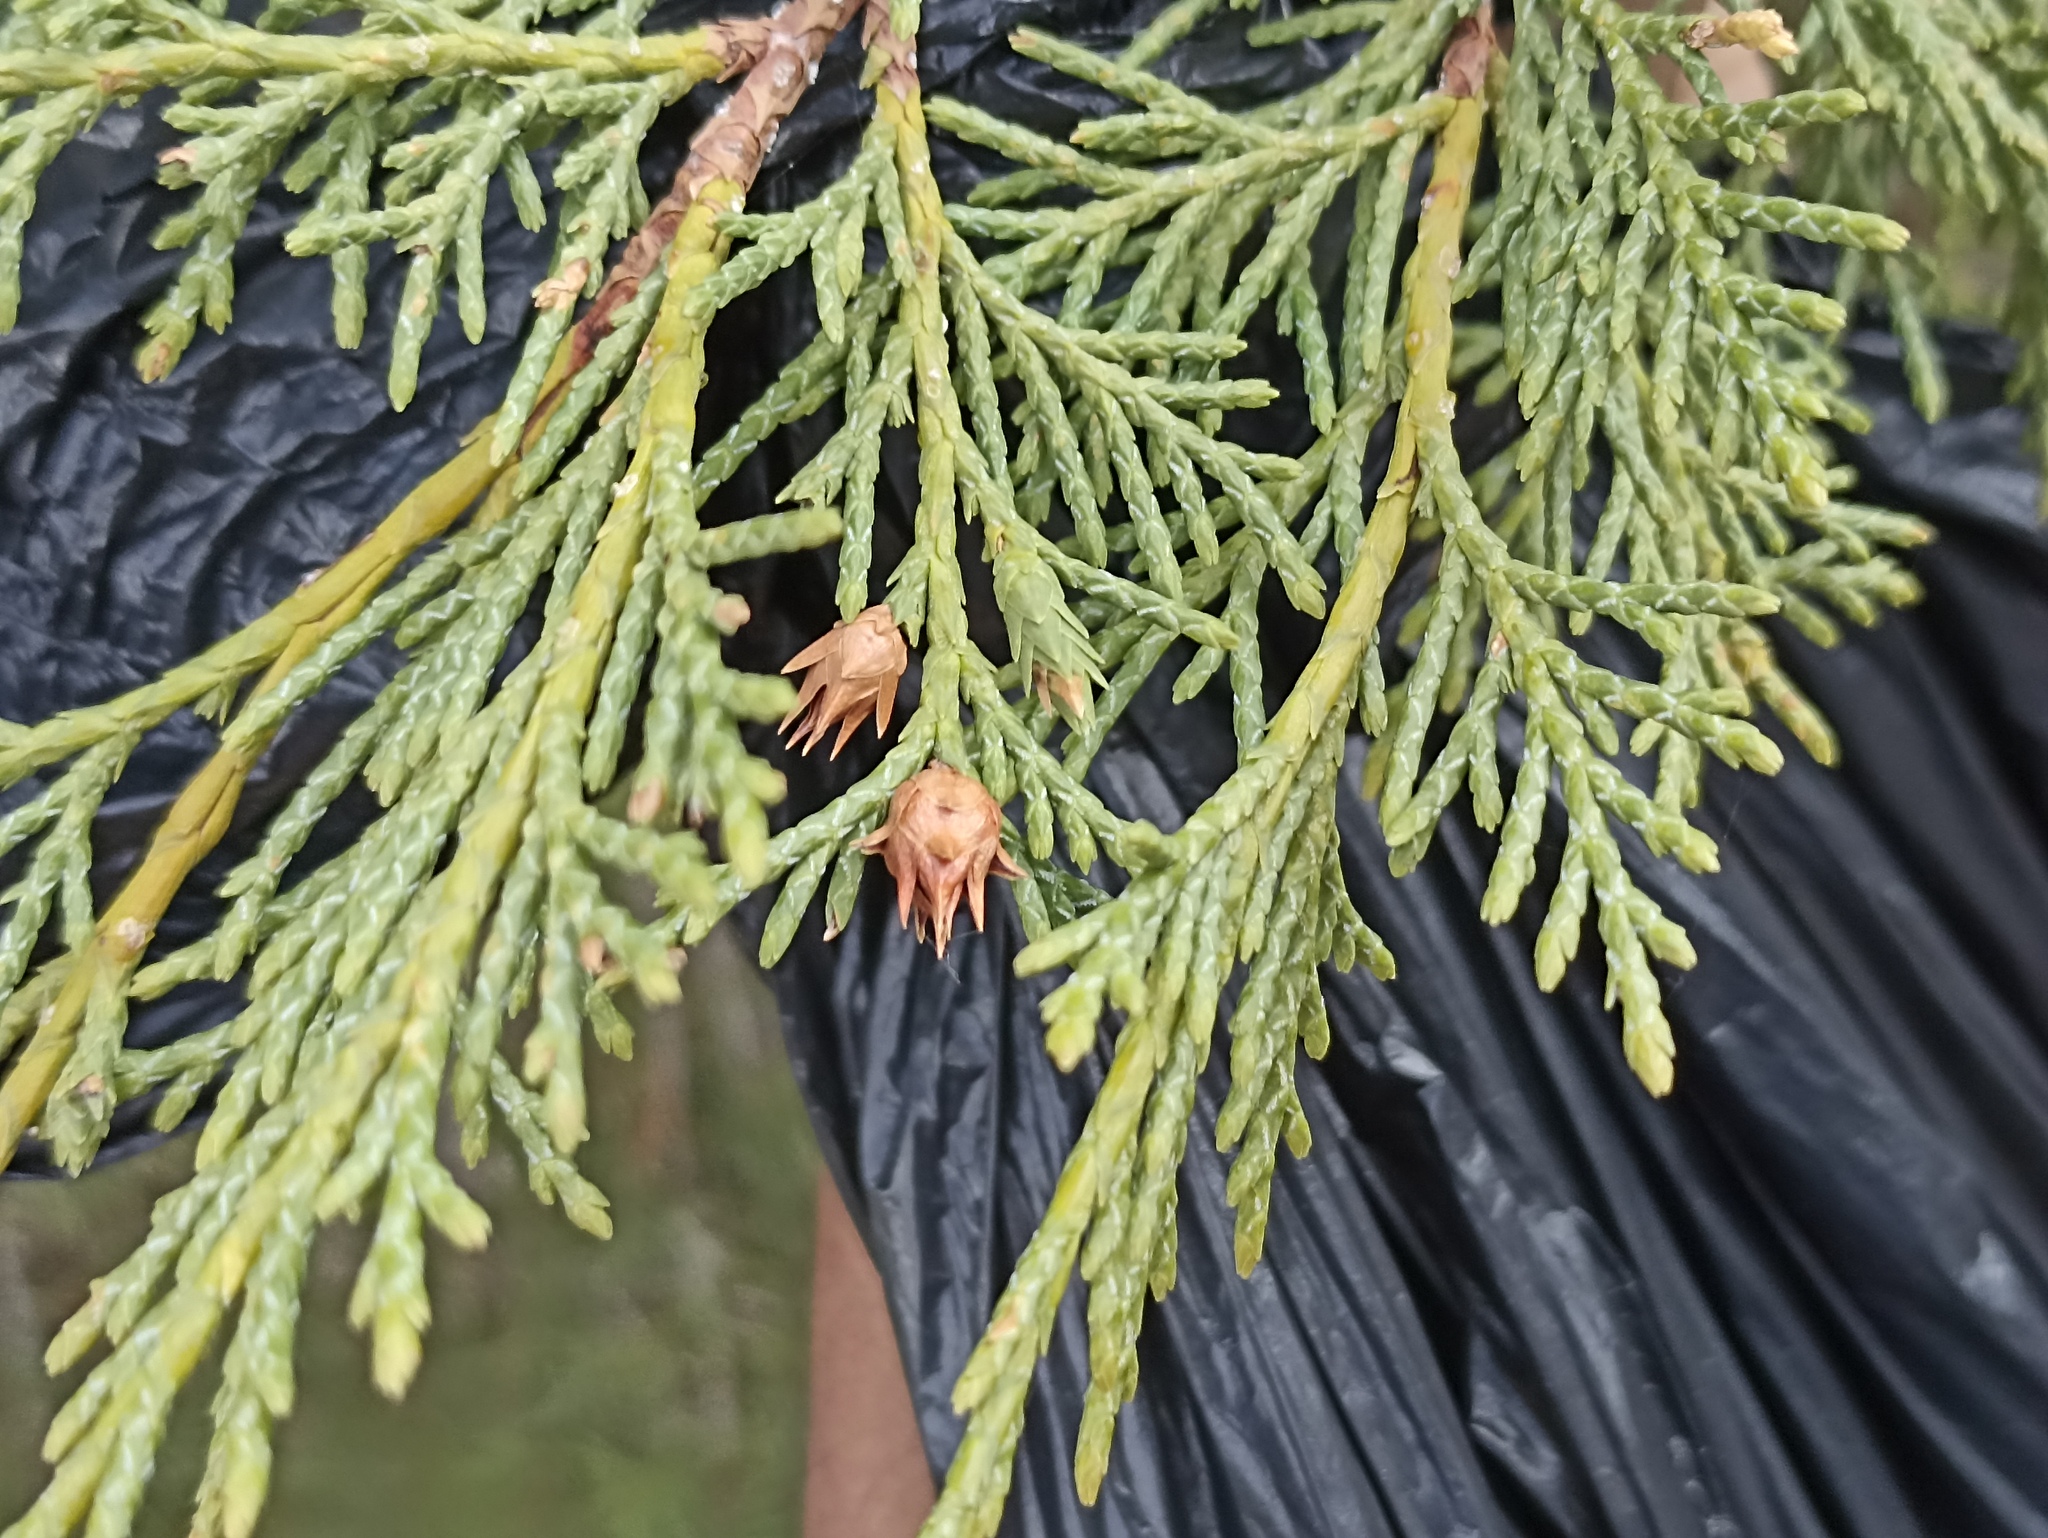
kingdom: Plantae
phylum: Tracheophyta
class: Pinopsida
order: Pinales
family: Cupressaceae
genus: Juniperus
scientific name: Juniperus thurifera
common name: Incense juniper
